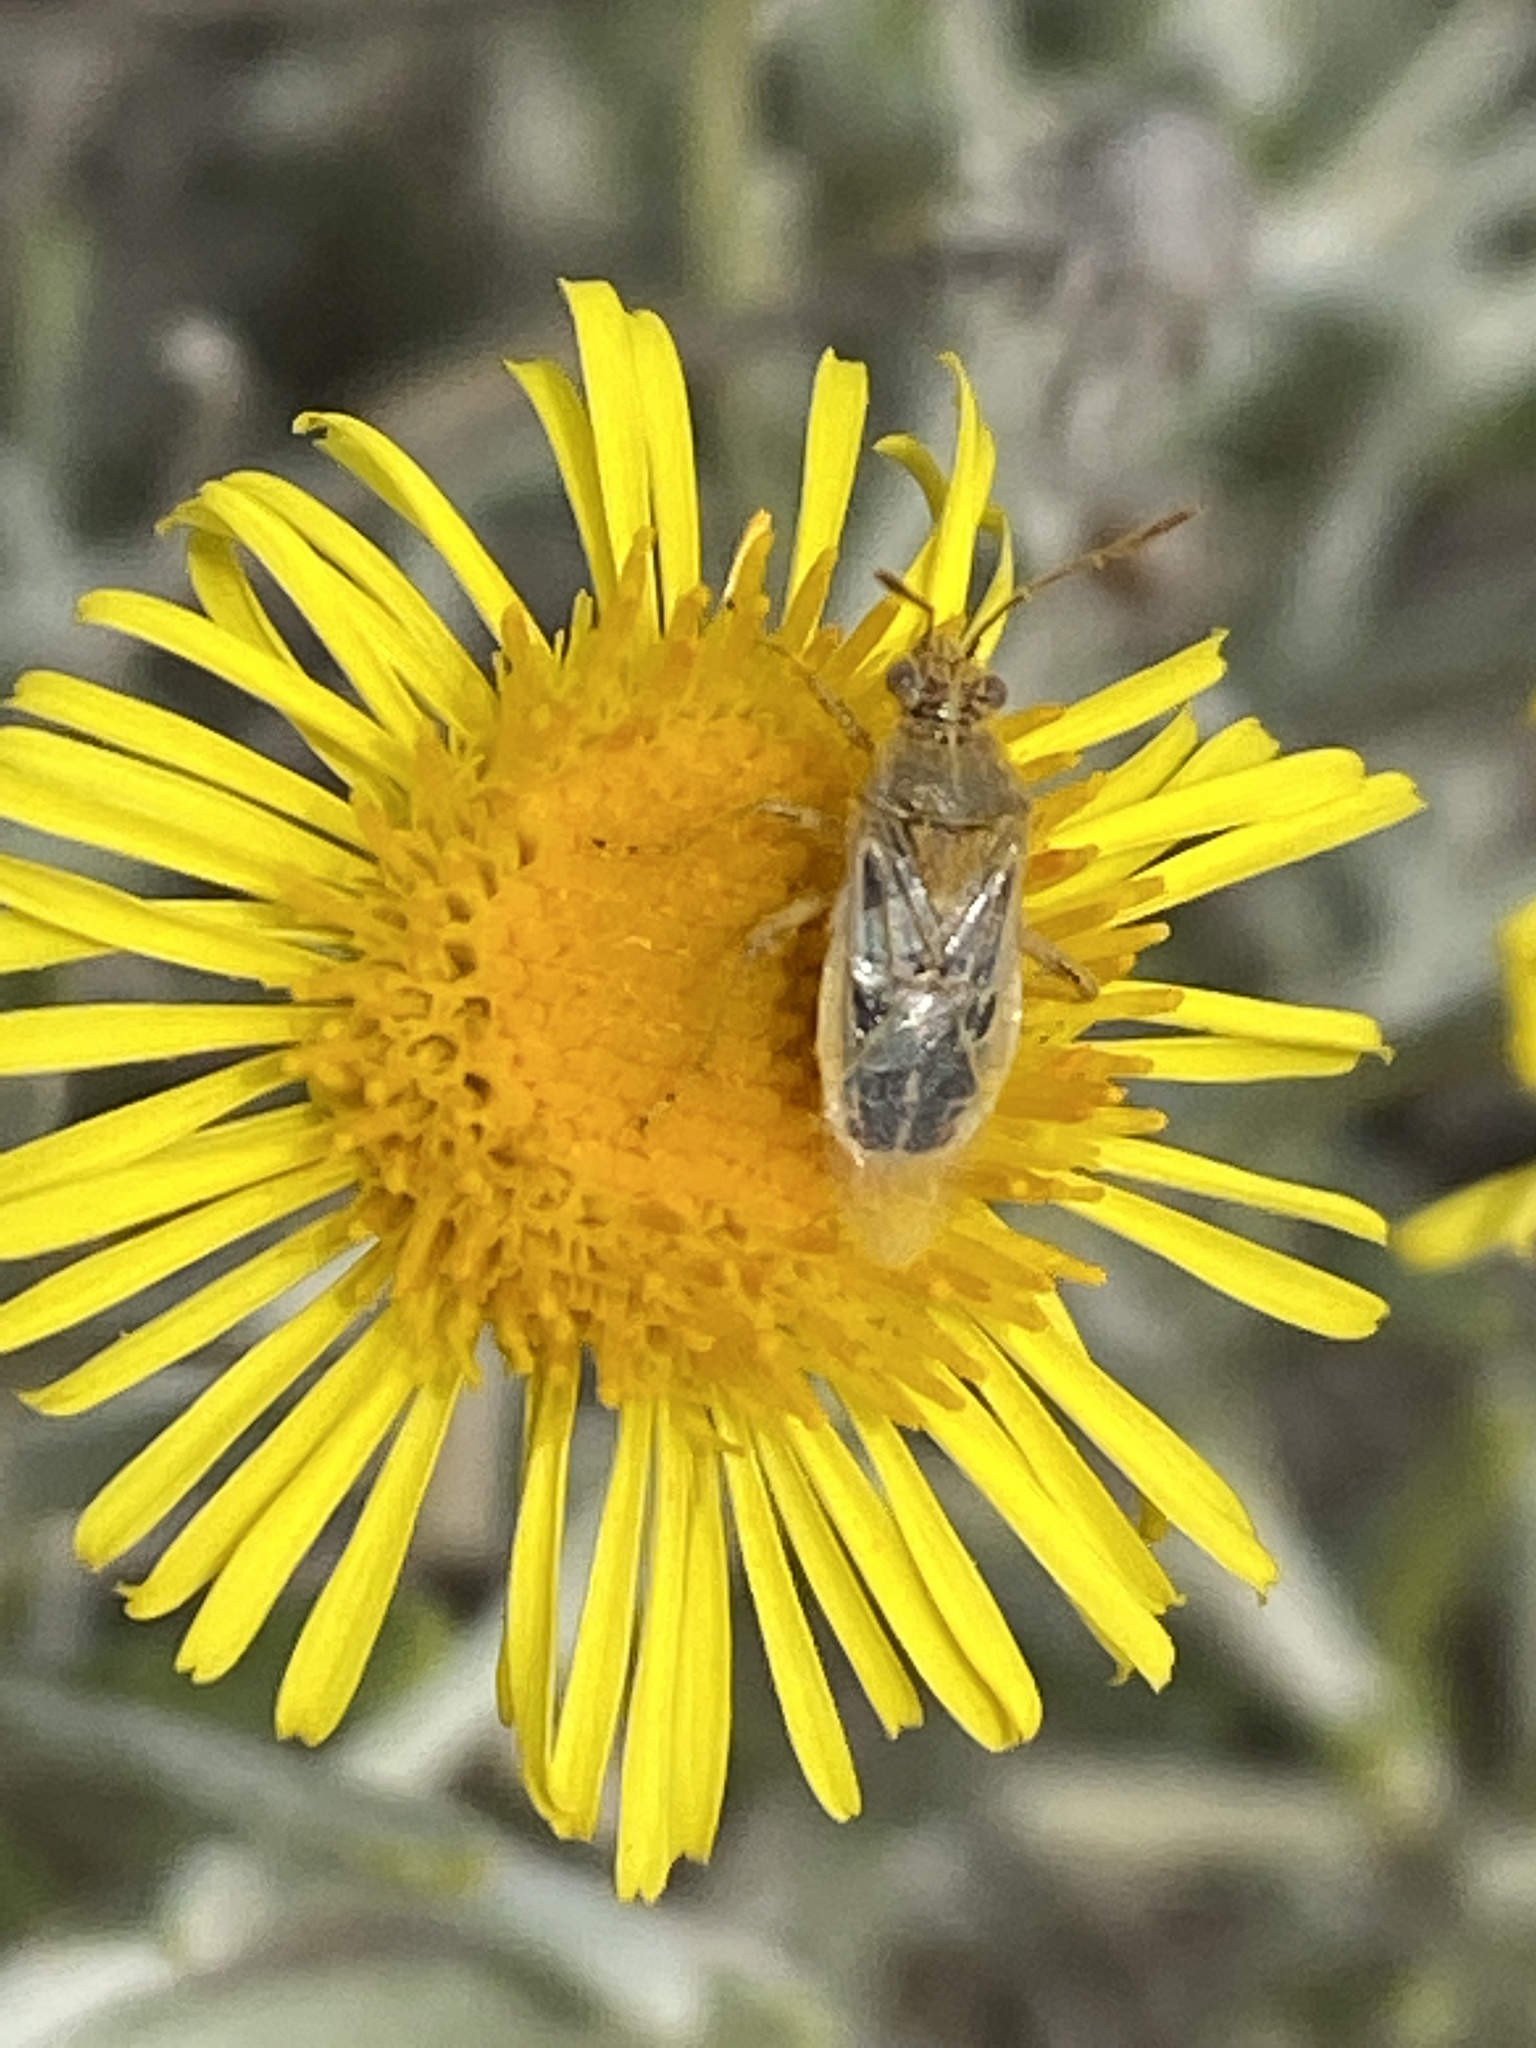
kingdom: Animalia
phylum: Arthropoda
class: Insecta
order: Hemiptera
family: Rhopalidae
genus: Liorhyssus
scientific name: Liorhyssus hyalinus
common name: Scentless plant bug
